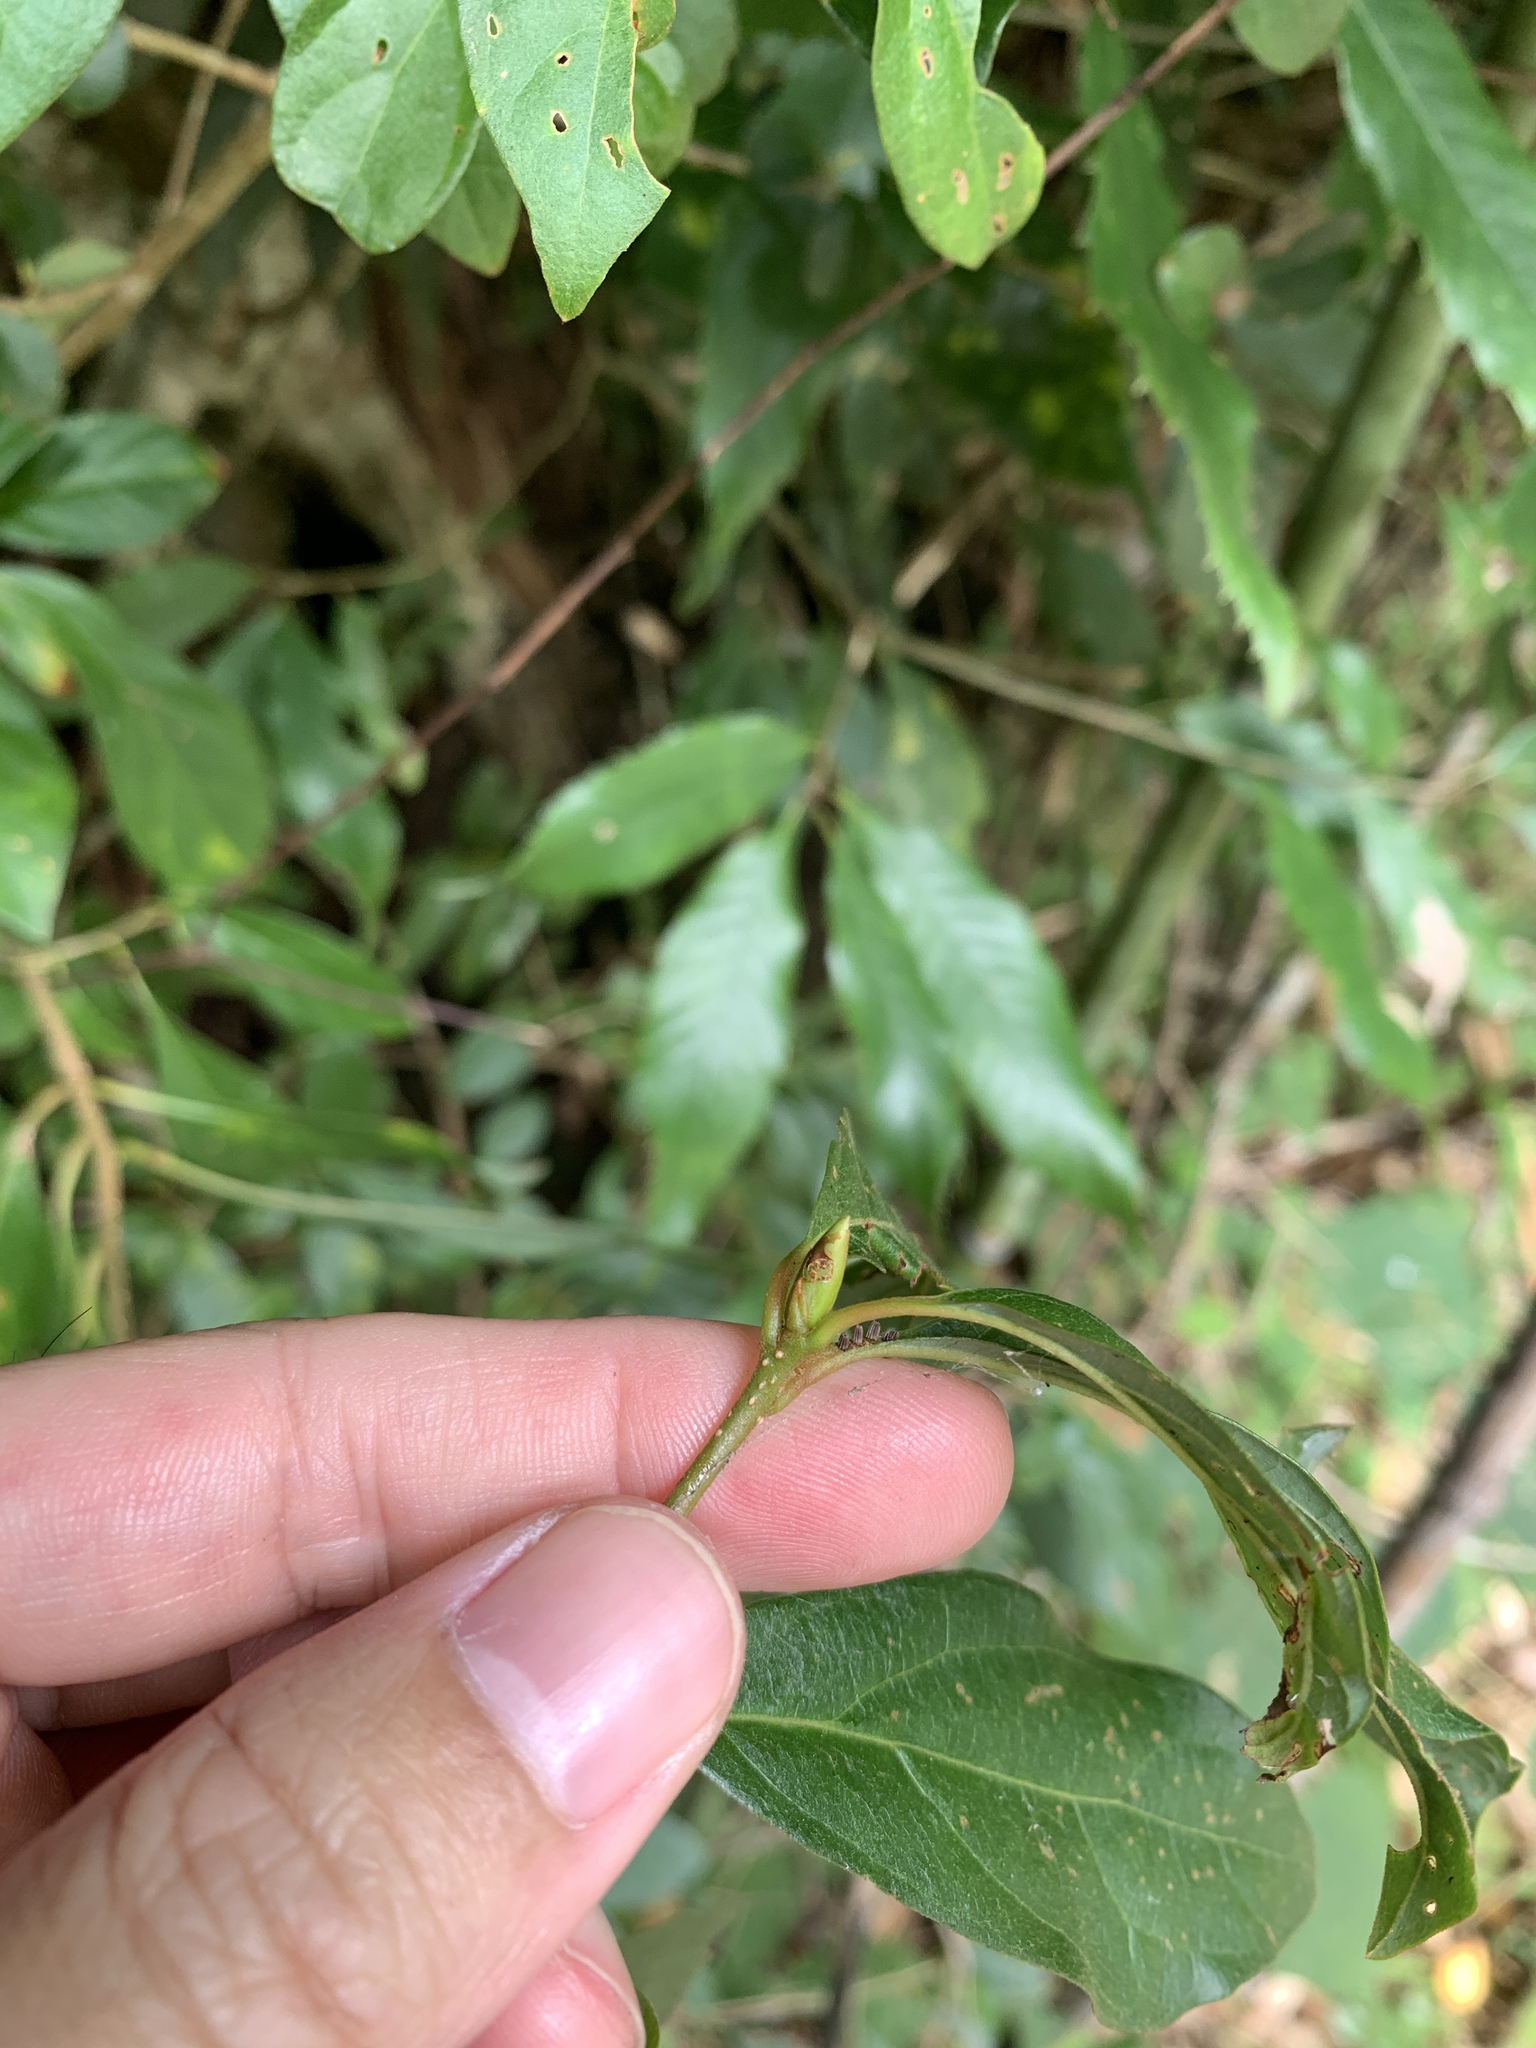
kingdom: Plantae
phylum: Tracheophyta
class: Magnoliopsida
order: Laurales
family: Lauraceae
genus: Lindera
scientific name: Lindera erythrocarpa
